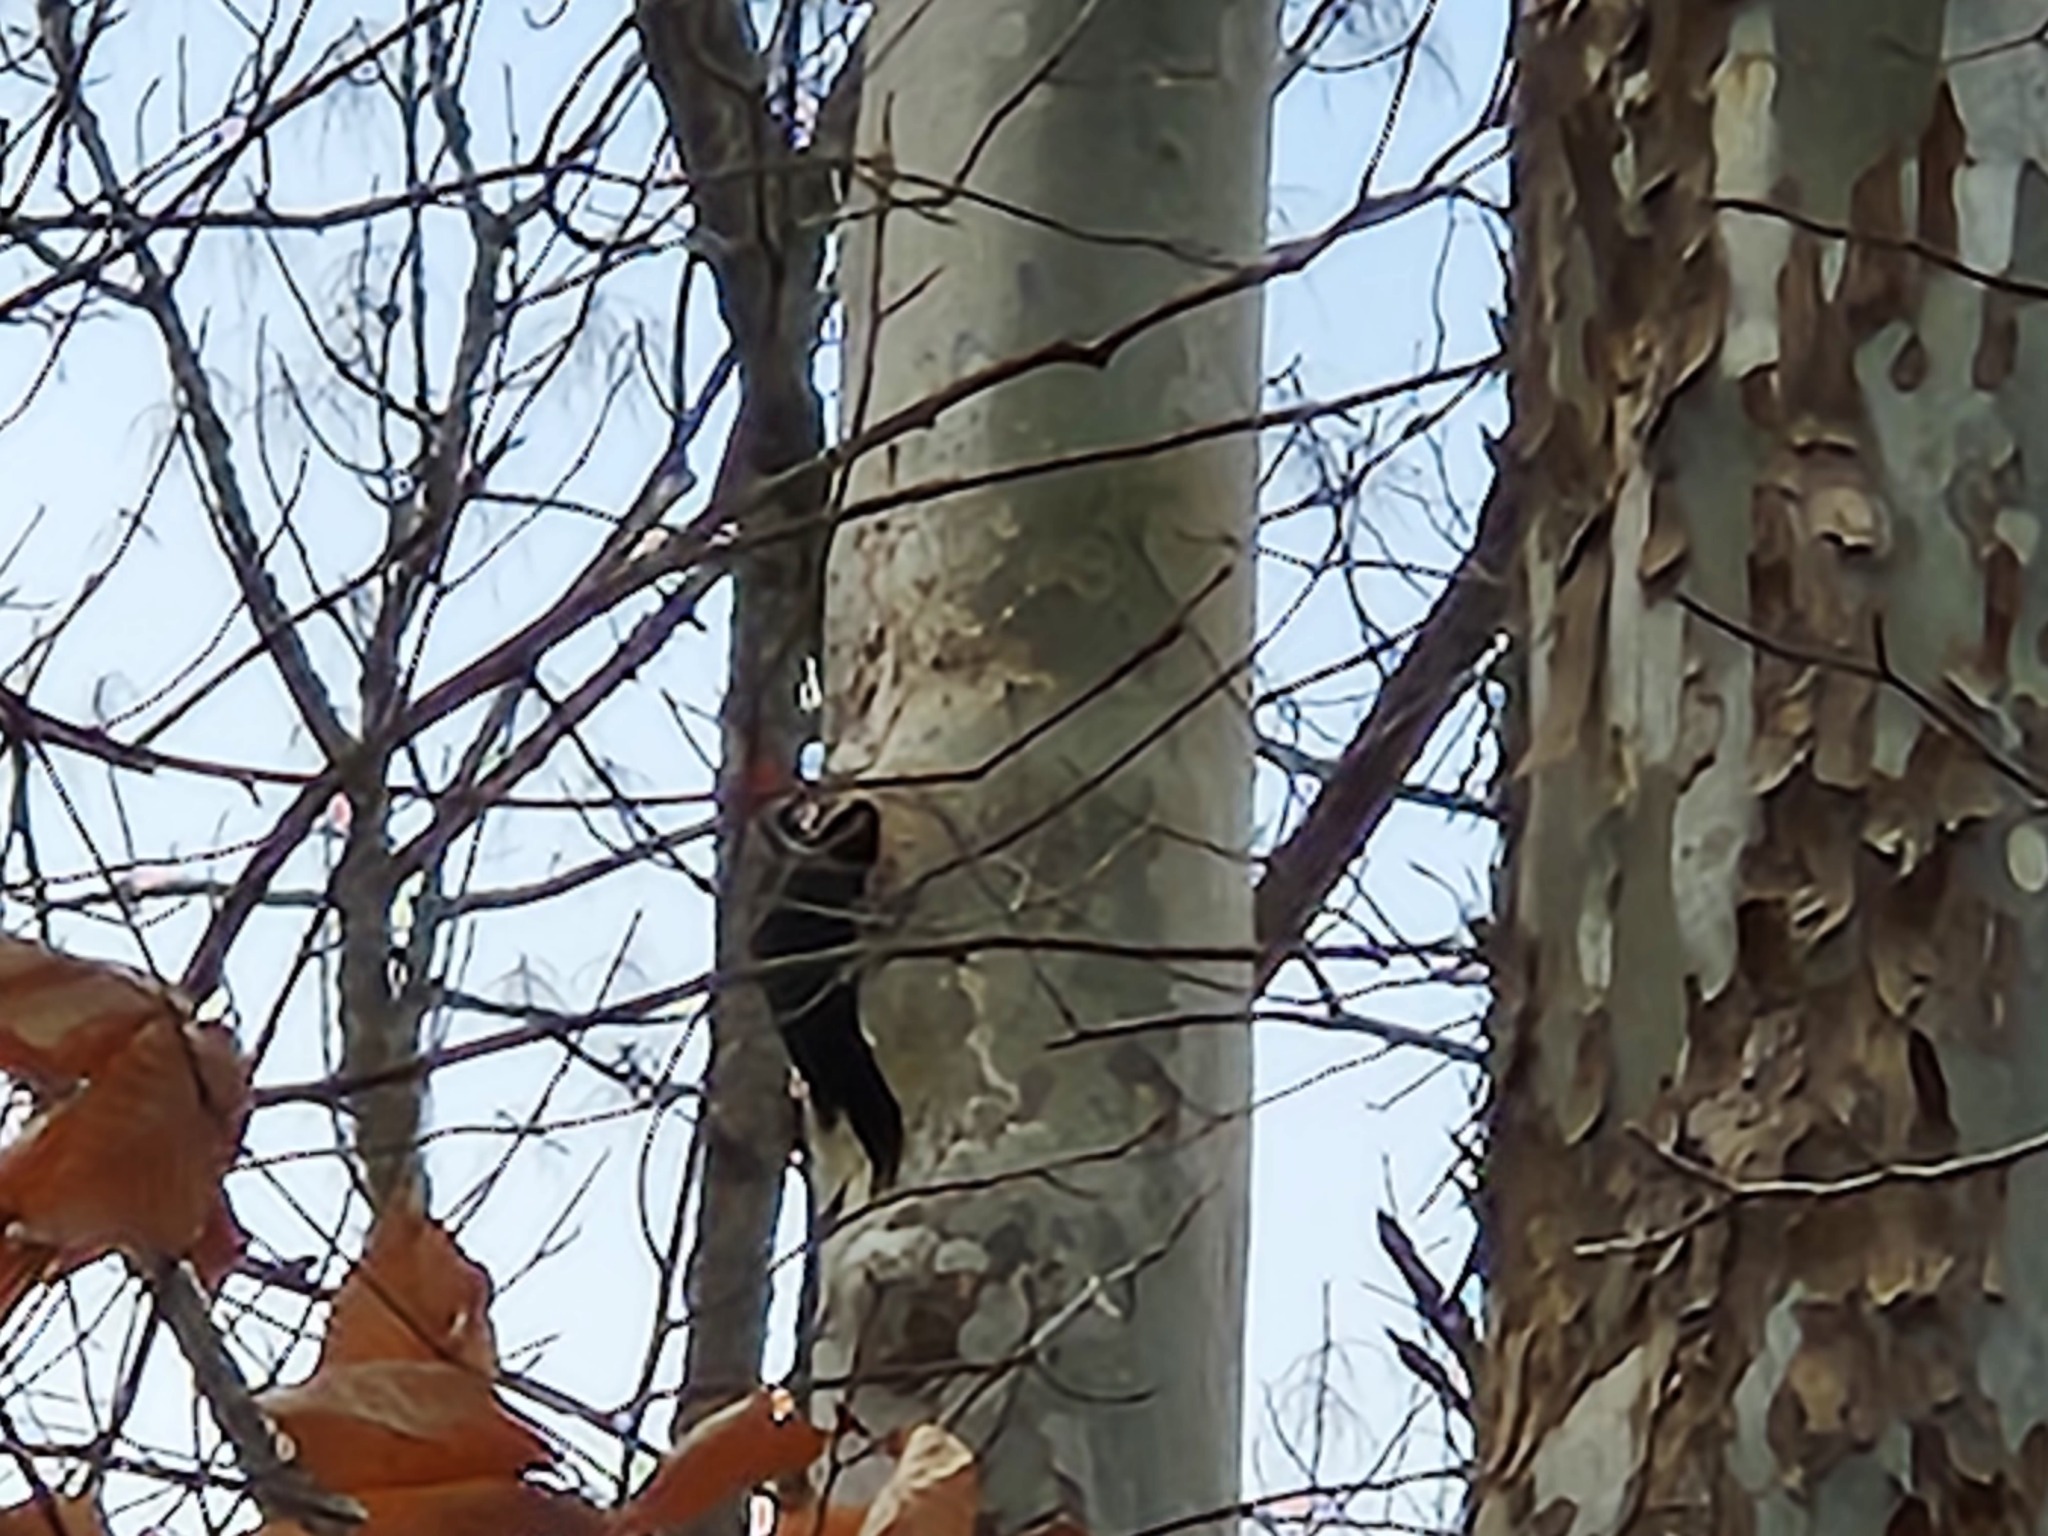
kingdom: Animalia
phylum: Chordata
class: Aves
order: Piciformes
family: Picidae
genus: Dryocopus
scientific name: Dryocopus pileatus
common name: Pileated woodpecker
